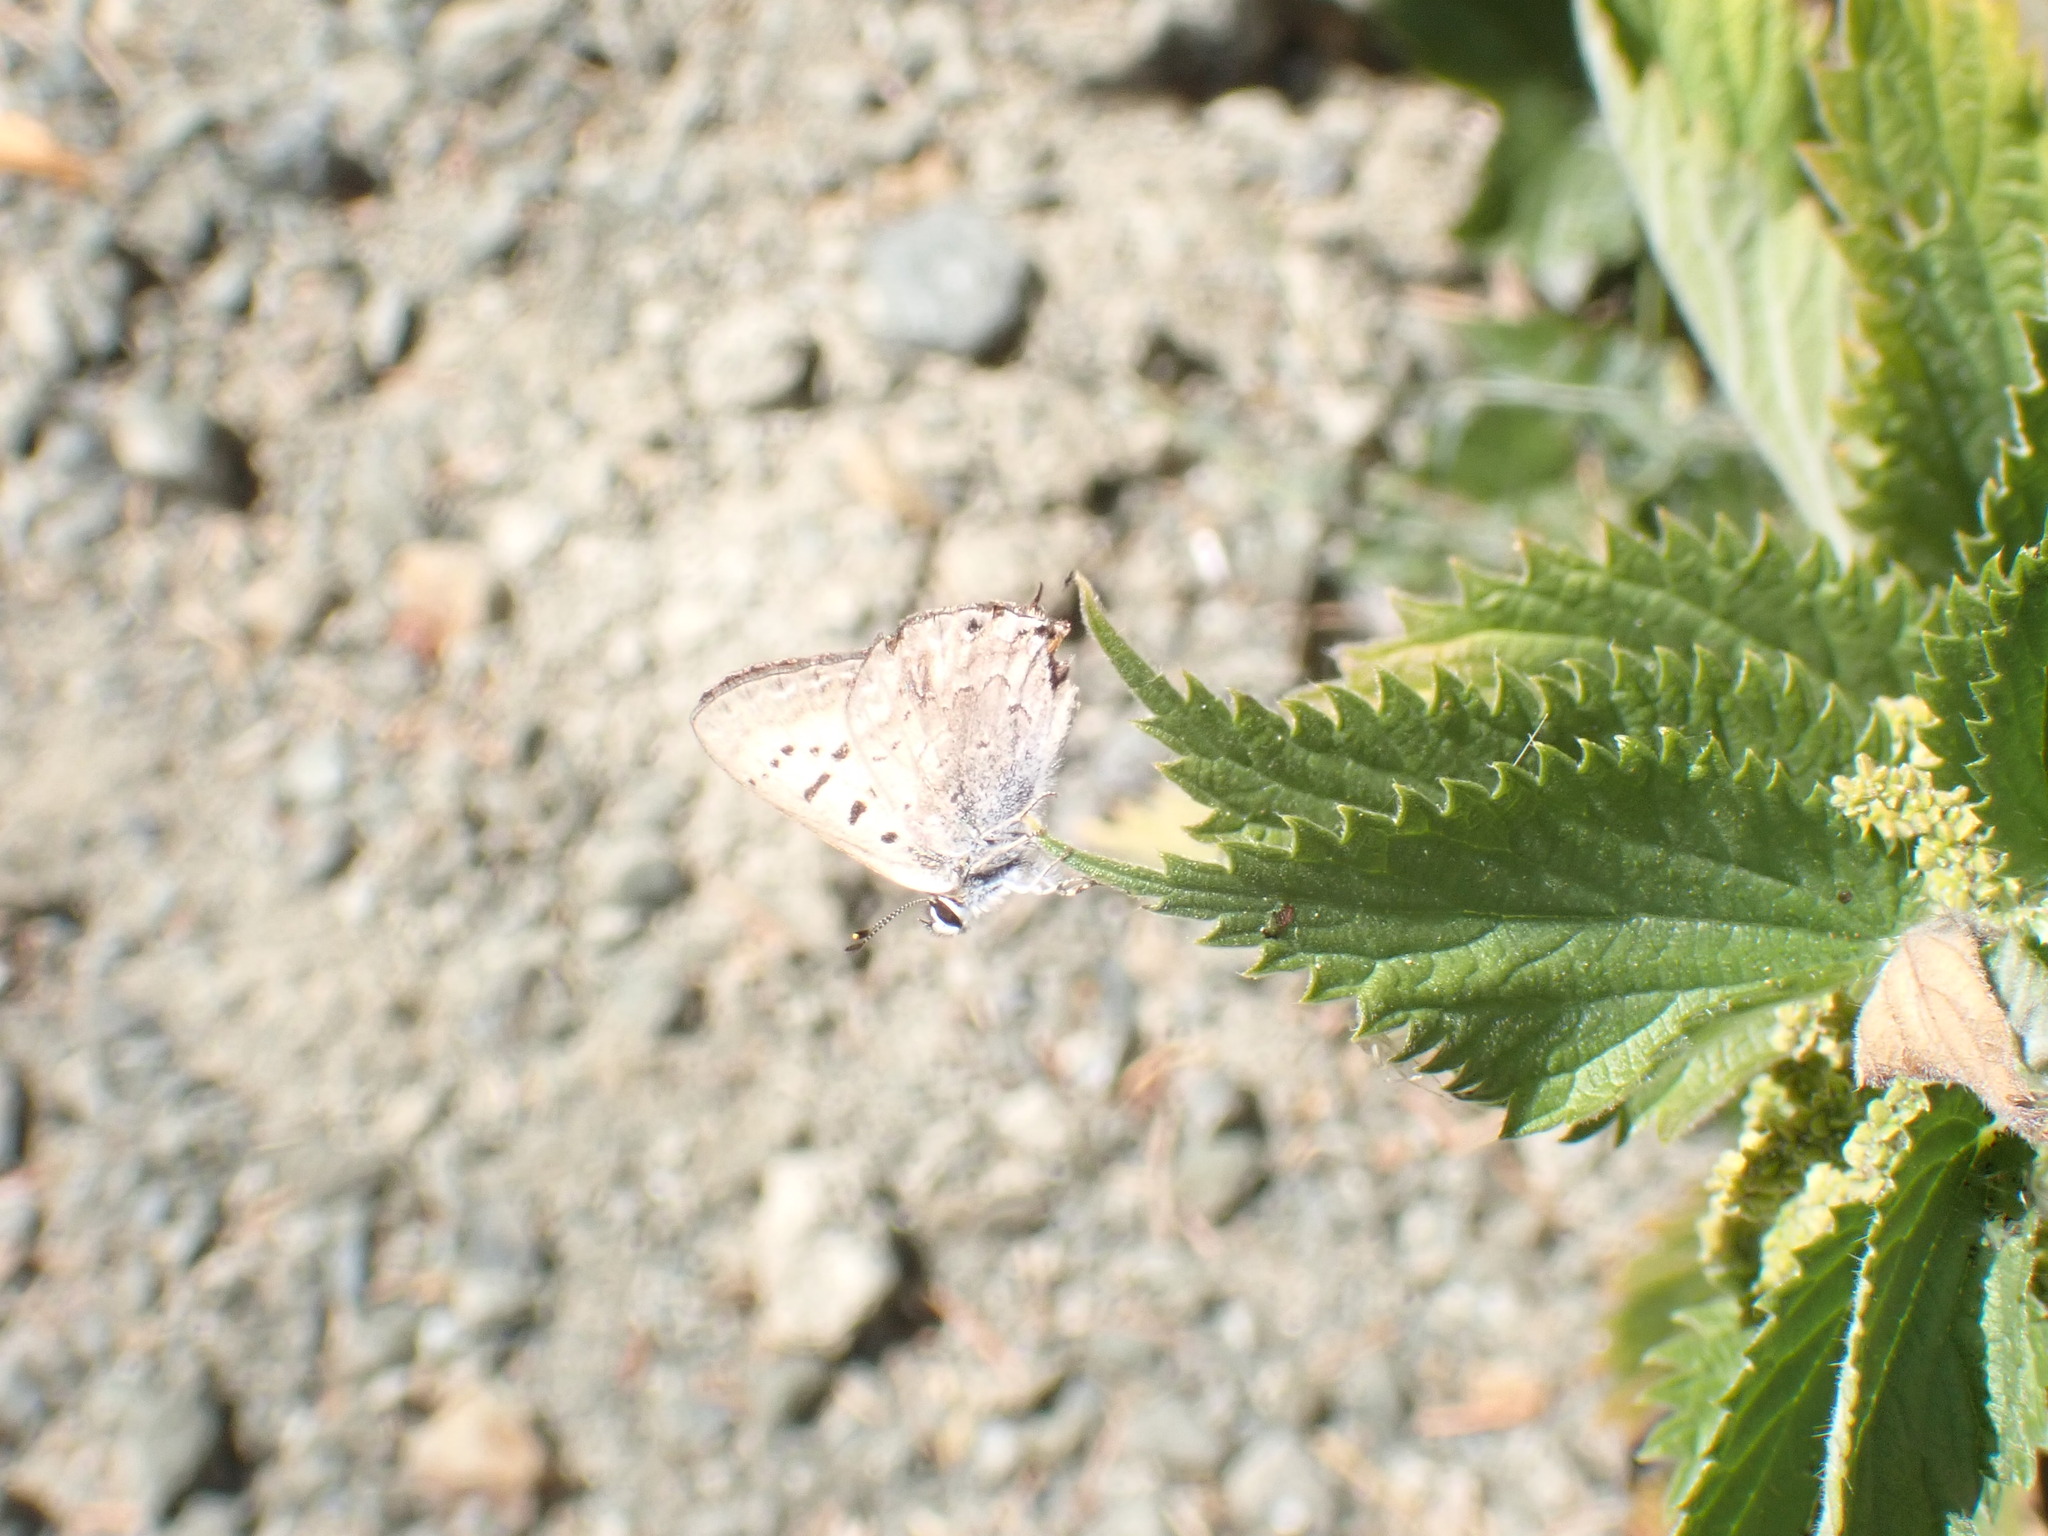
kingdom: Animalia
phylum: Arthropoda
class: Insecta
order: Lepidoptera
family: Lycaenidae
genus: Tharsalea
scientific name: Tharsalea arota
